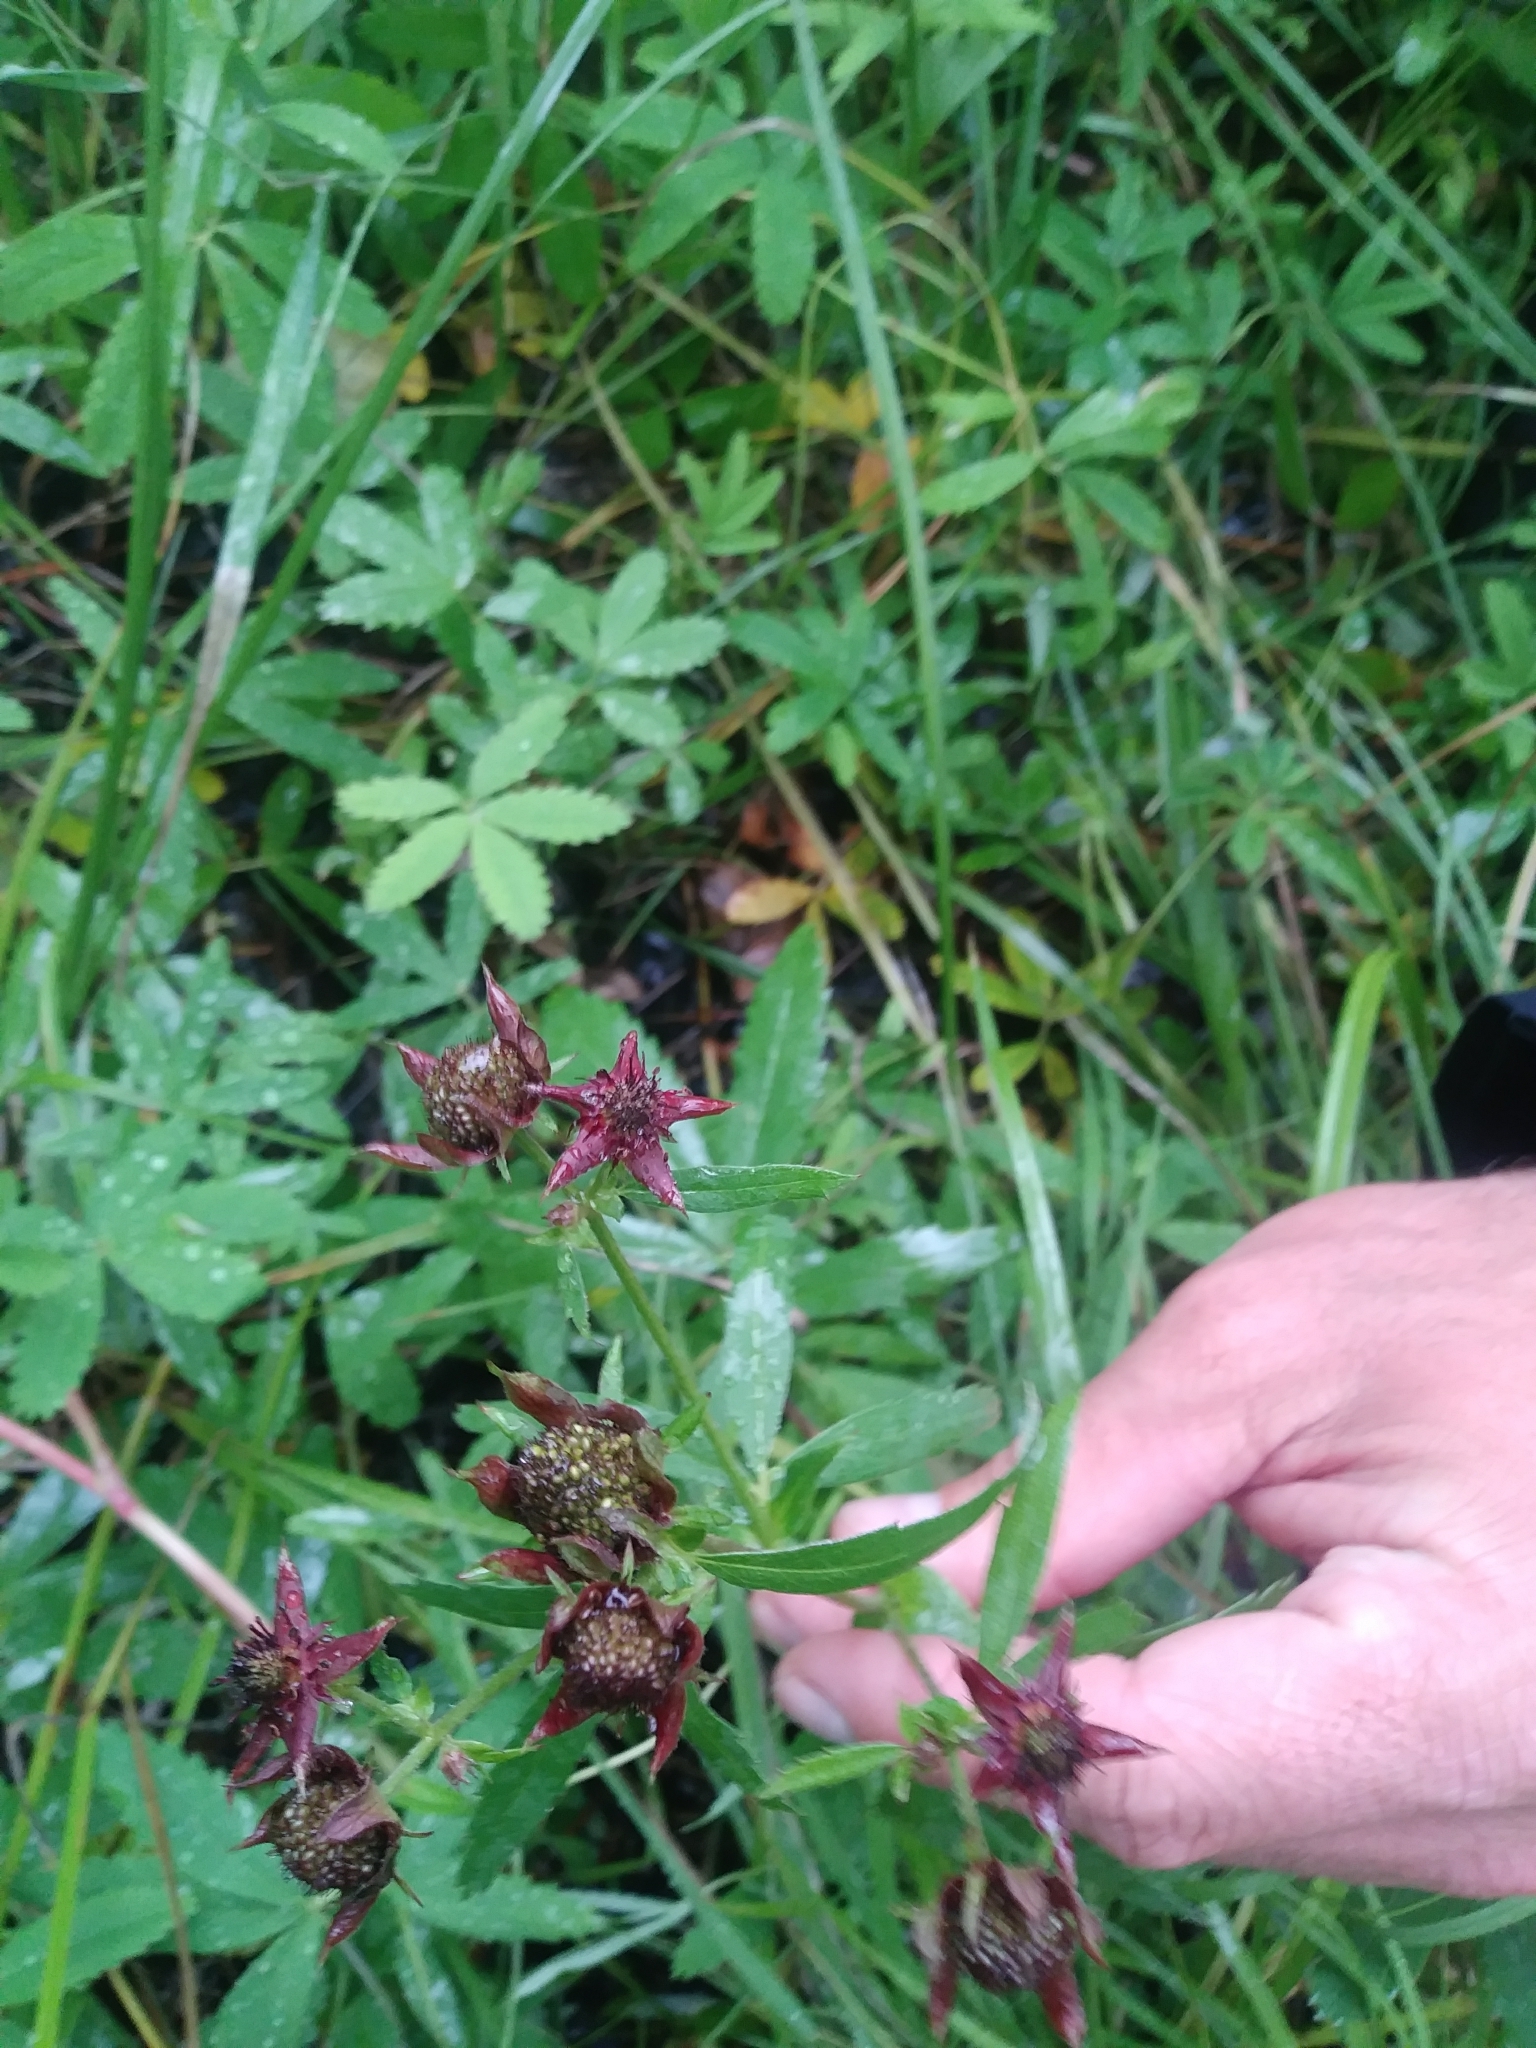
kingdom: Plantae
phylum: Tracheophyta
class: Magnoliopsida
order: Rosales
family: Rosaceae
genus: Comarum
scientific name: Comarum palustre
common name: Marsh cinquefoil
